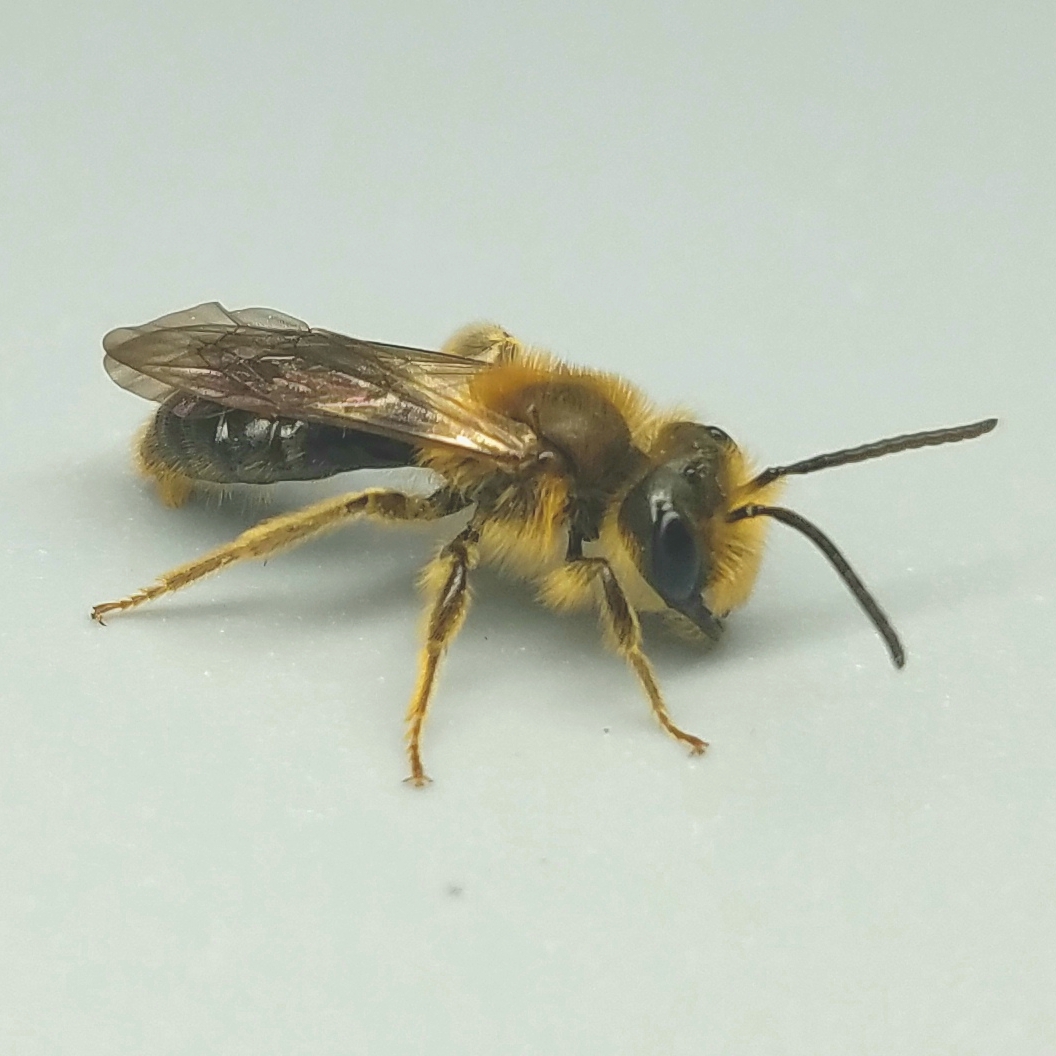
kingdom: Animalia
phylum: Arthropoda
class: Insecta
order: Hymenoptera
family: Andrenidae
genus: Andrena
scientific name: Andrena pruni
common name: Cherry mining bee
